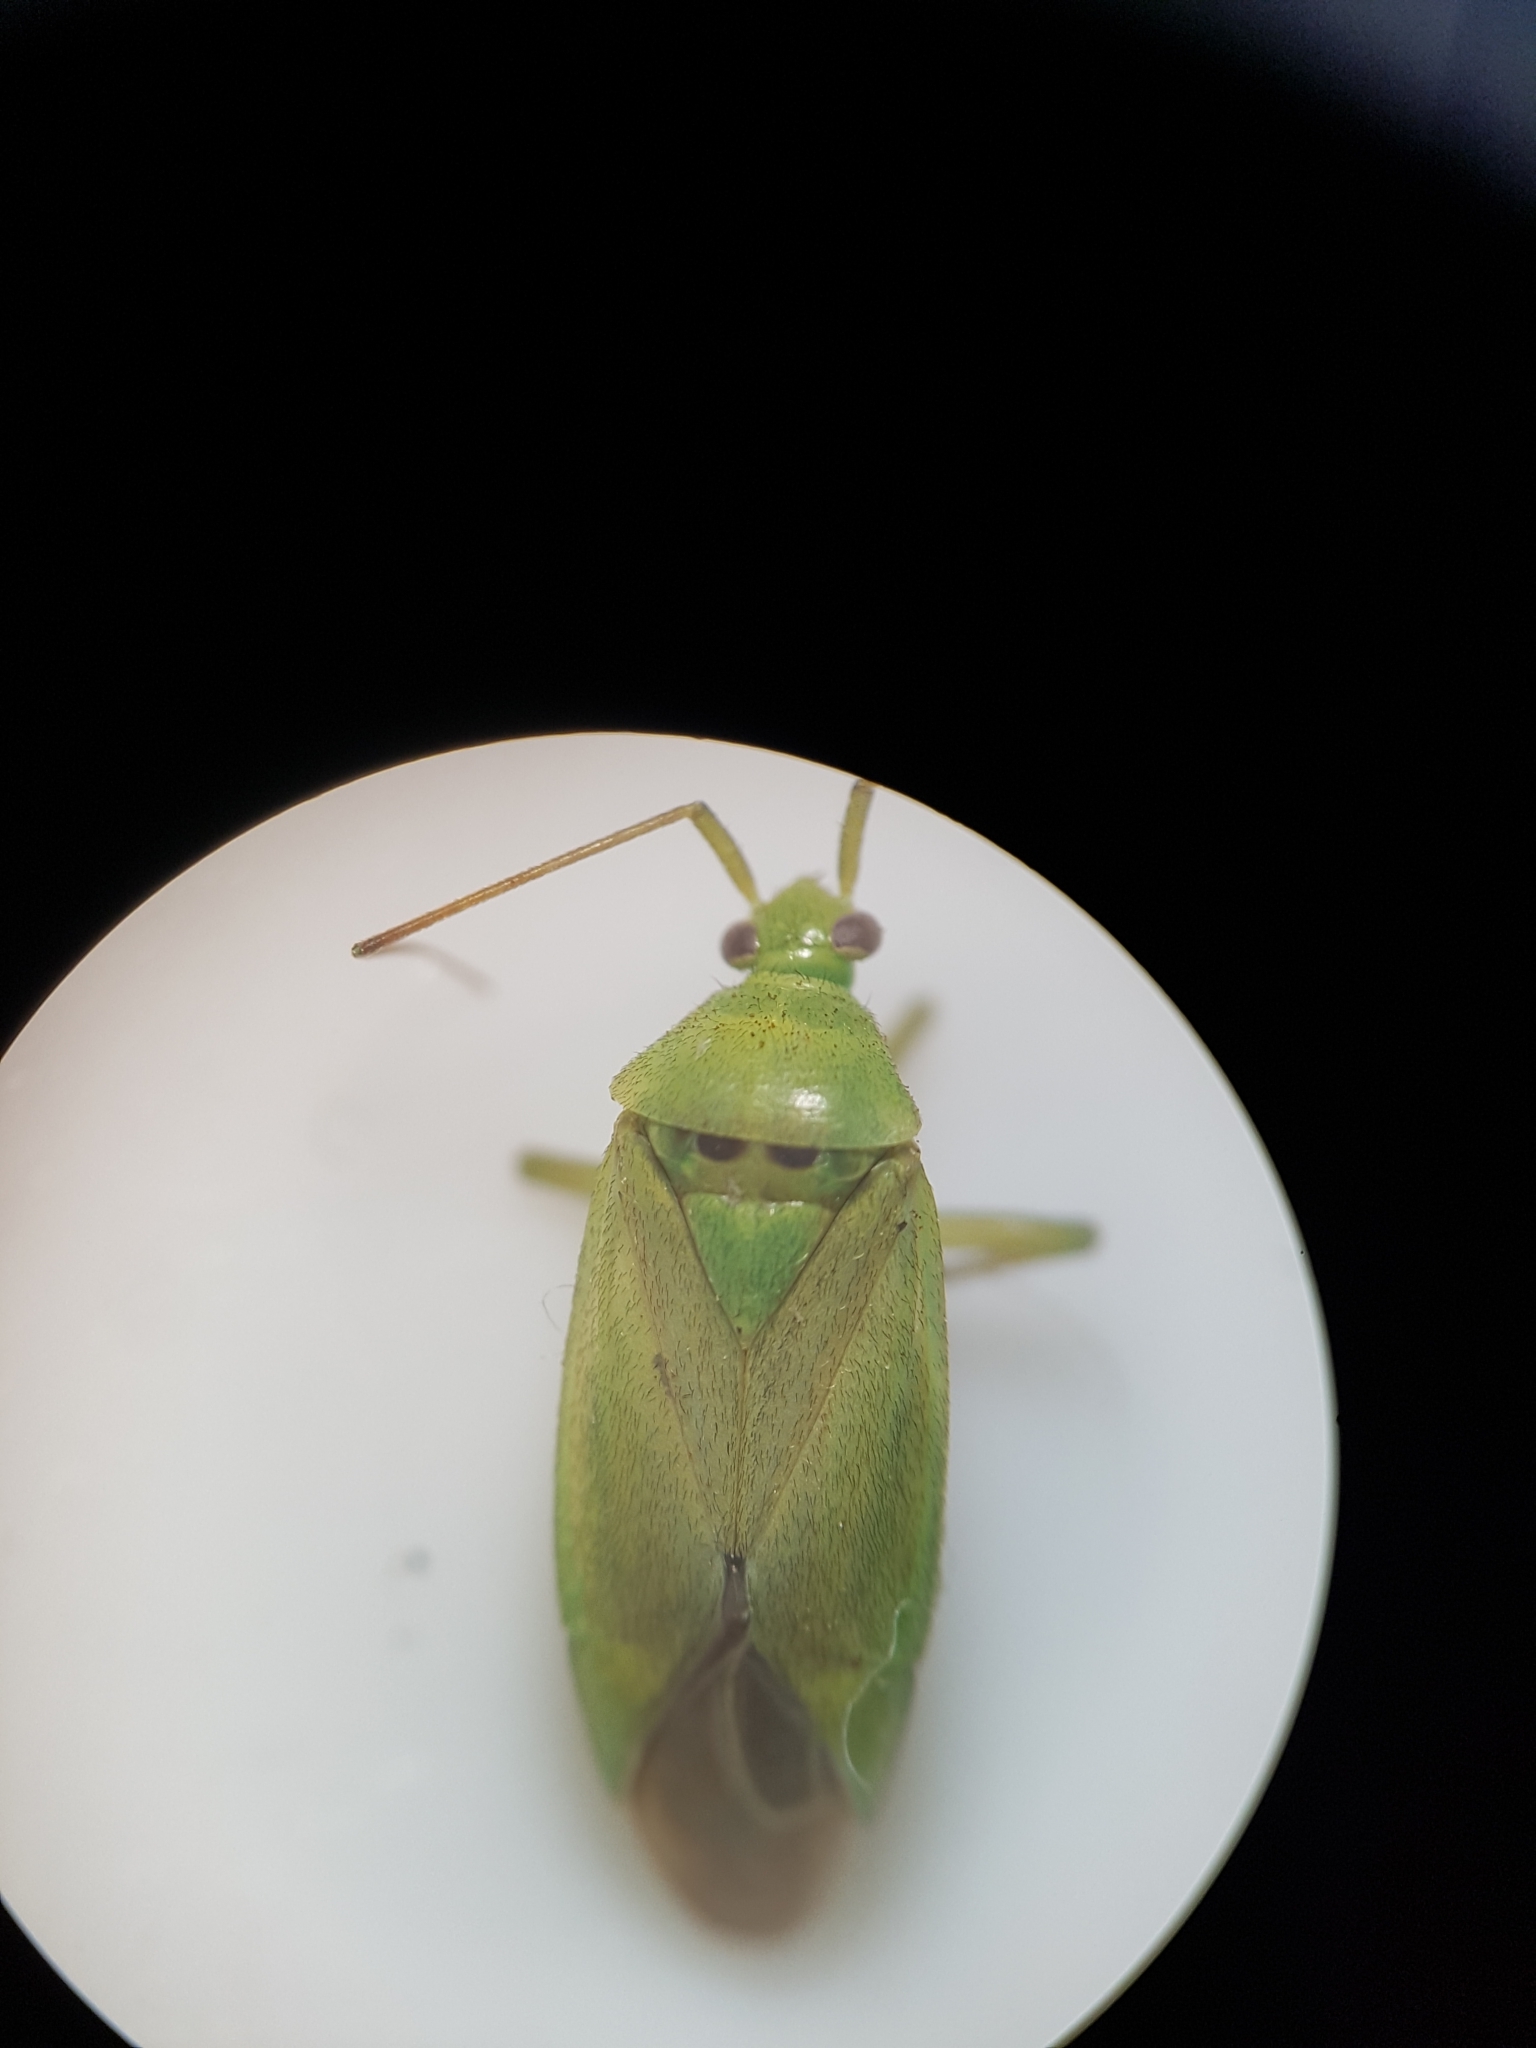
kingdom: Animalia
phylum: Arthropoda
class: Insecta
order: Hemiptera
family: Miridae
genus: Closterotomus
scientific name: Closterotomus norvegicus
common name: Plant bug
